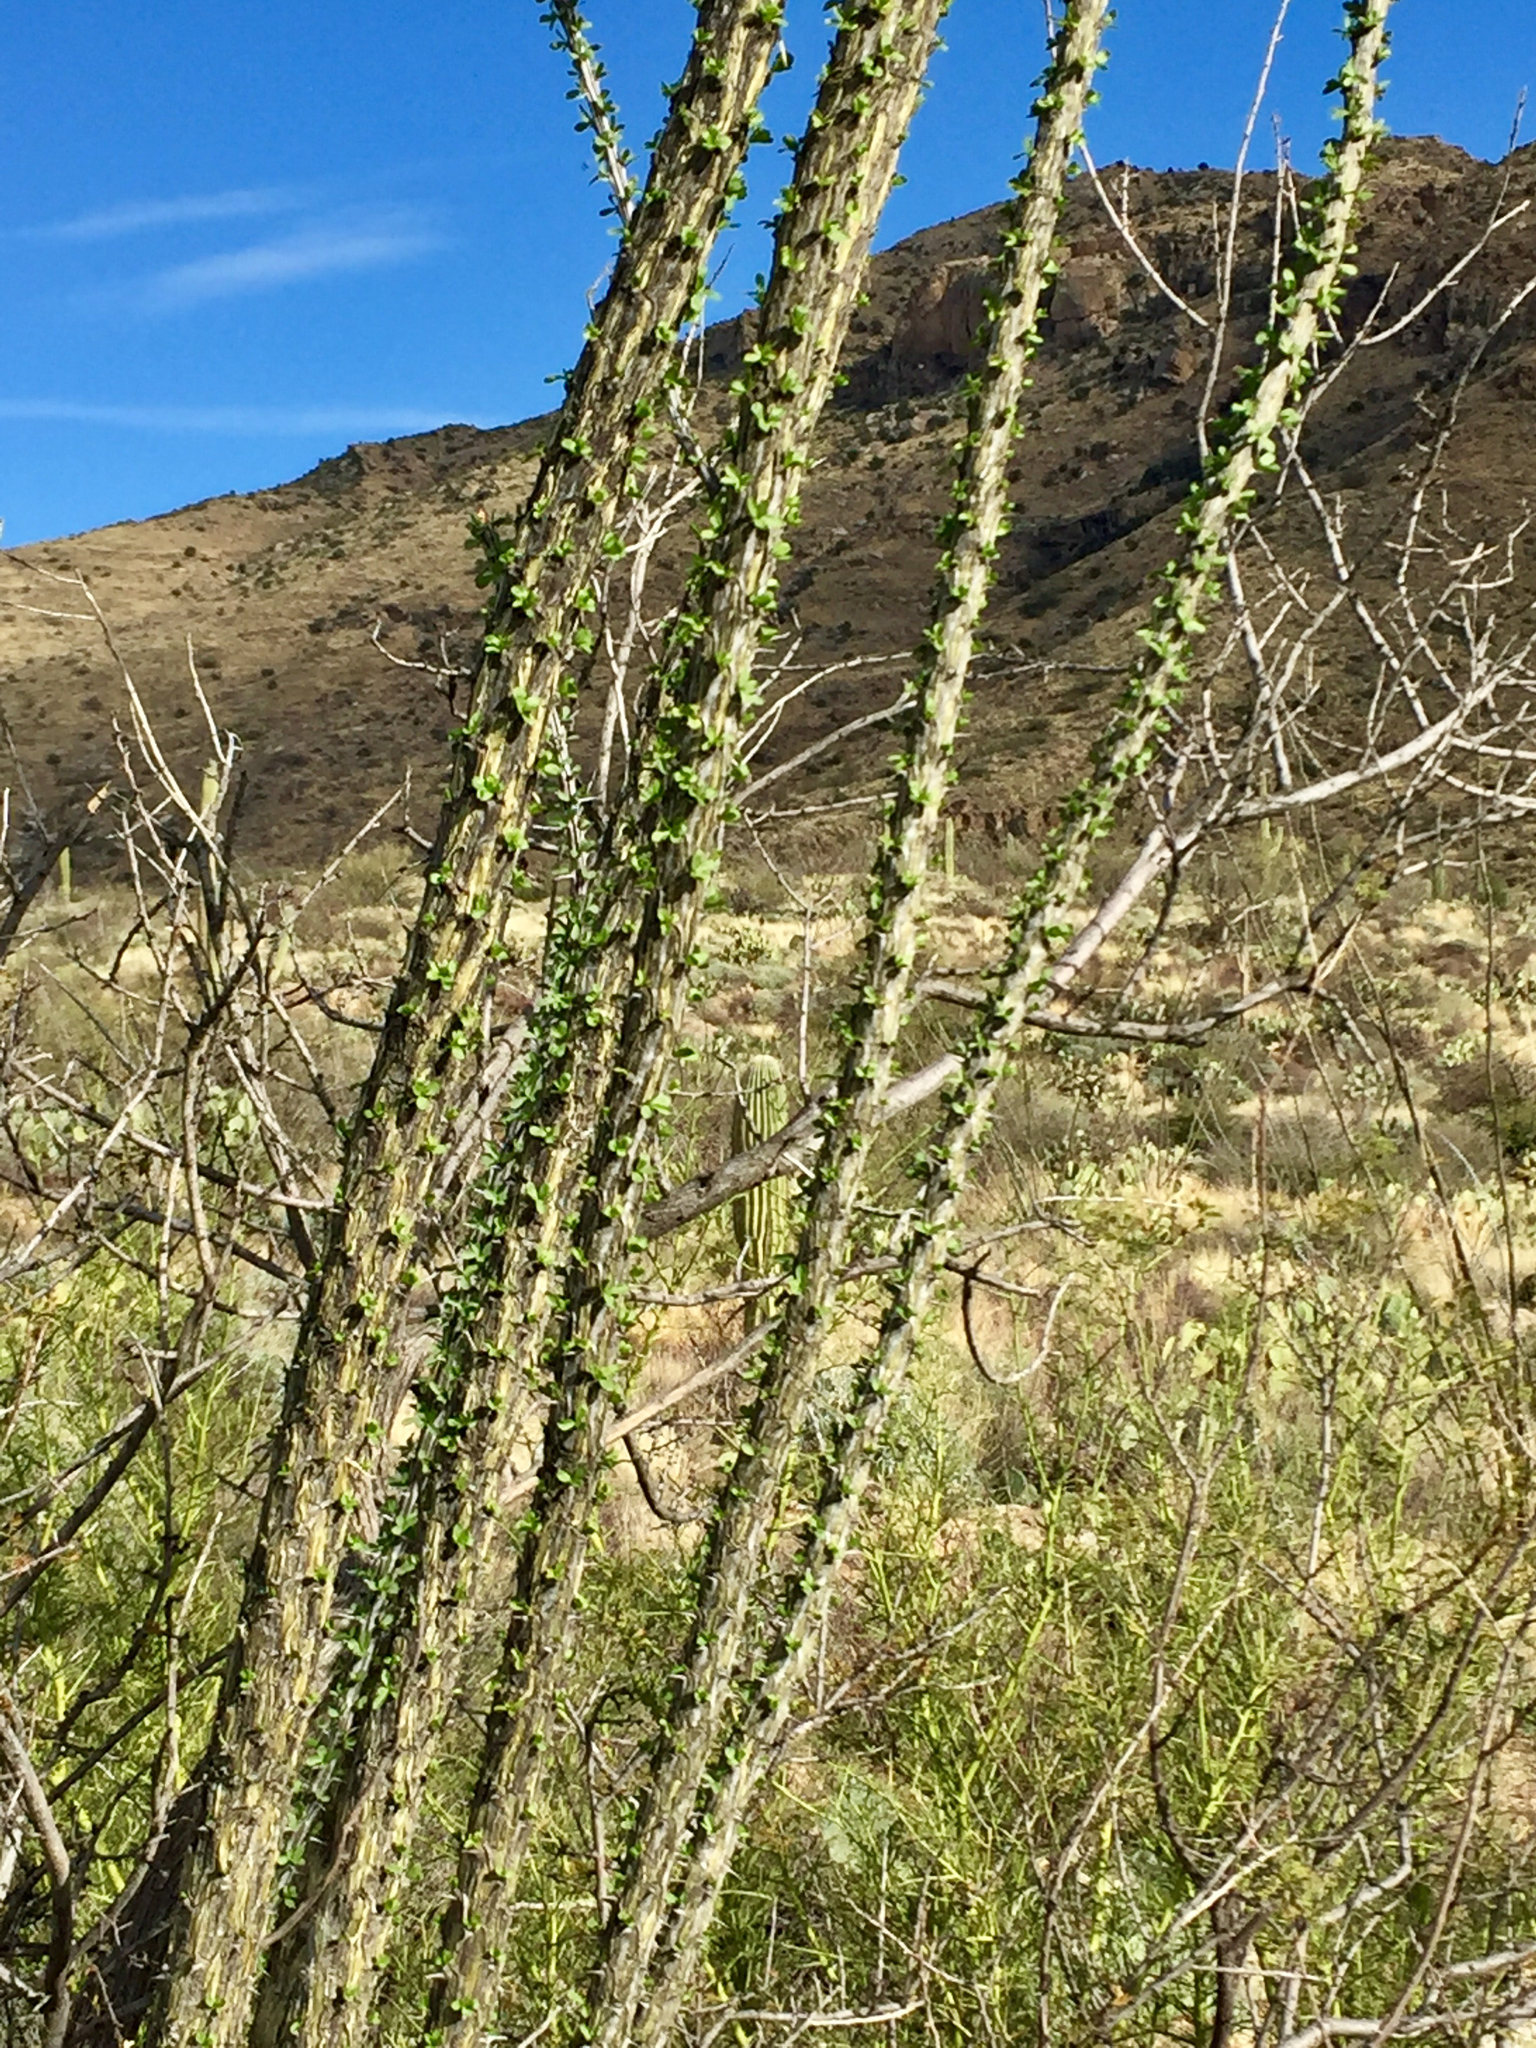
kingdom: Plantae
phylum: Tracheophyta
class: Magnoliopsida
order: Ericales
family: Fouquieriaceae
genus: Fouquieria
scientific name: Fouquieria splendens
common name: Vine-cactus
